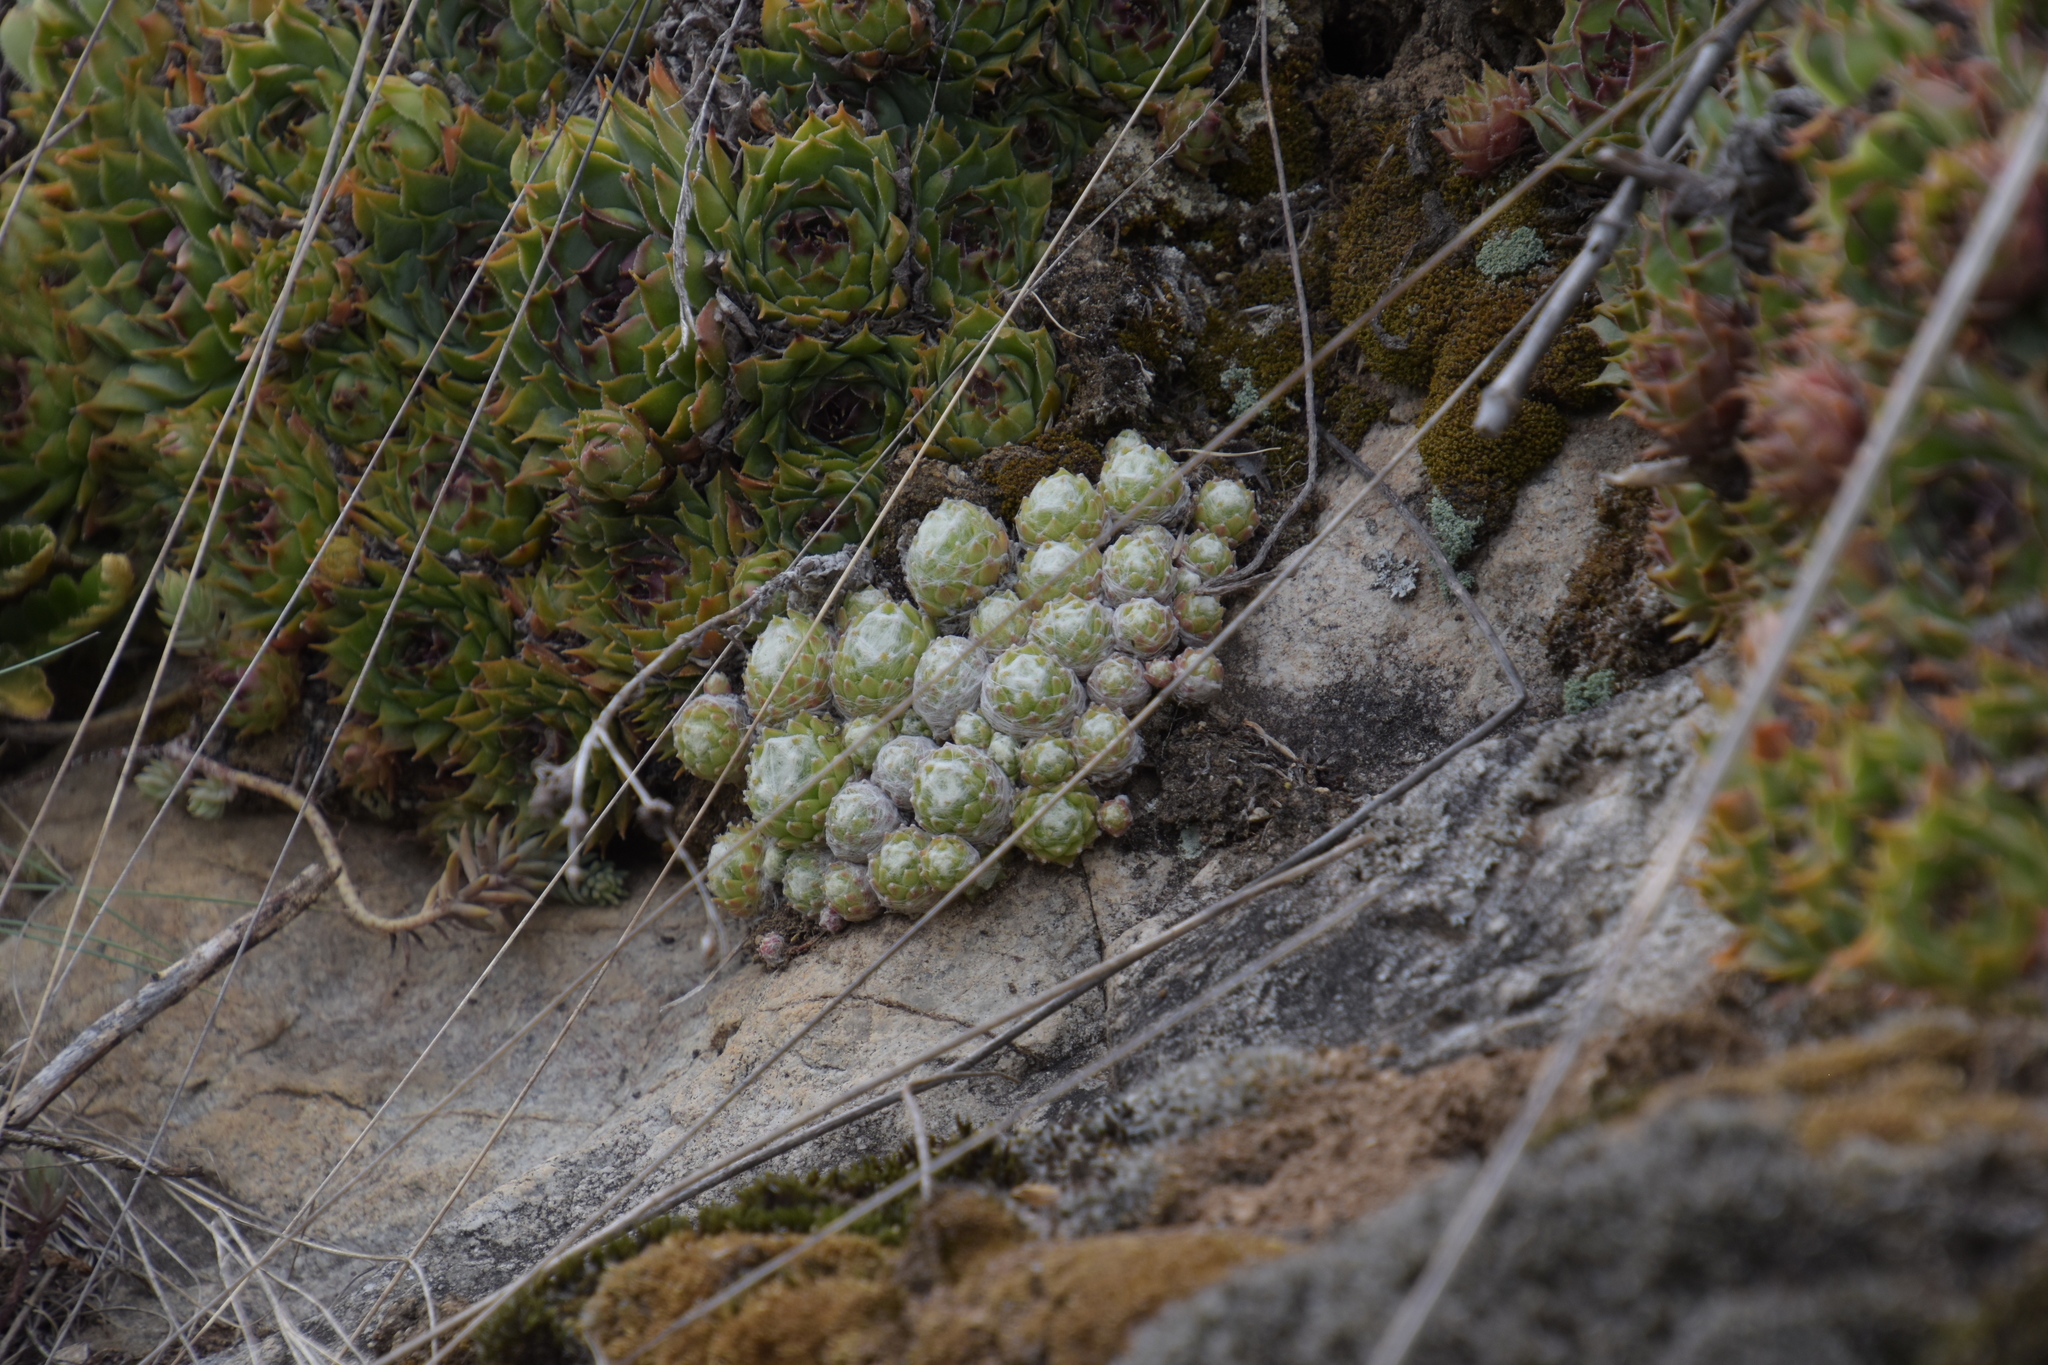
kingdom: Plantae
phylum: Tracheophyta
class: Magnoliopsida
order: Saxifragales
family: Crassulaceae
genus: Sempervivum
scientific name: Sempervivum arachnoideum
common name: Cobweb house-leek
